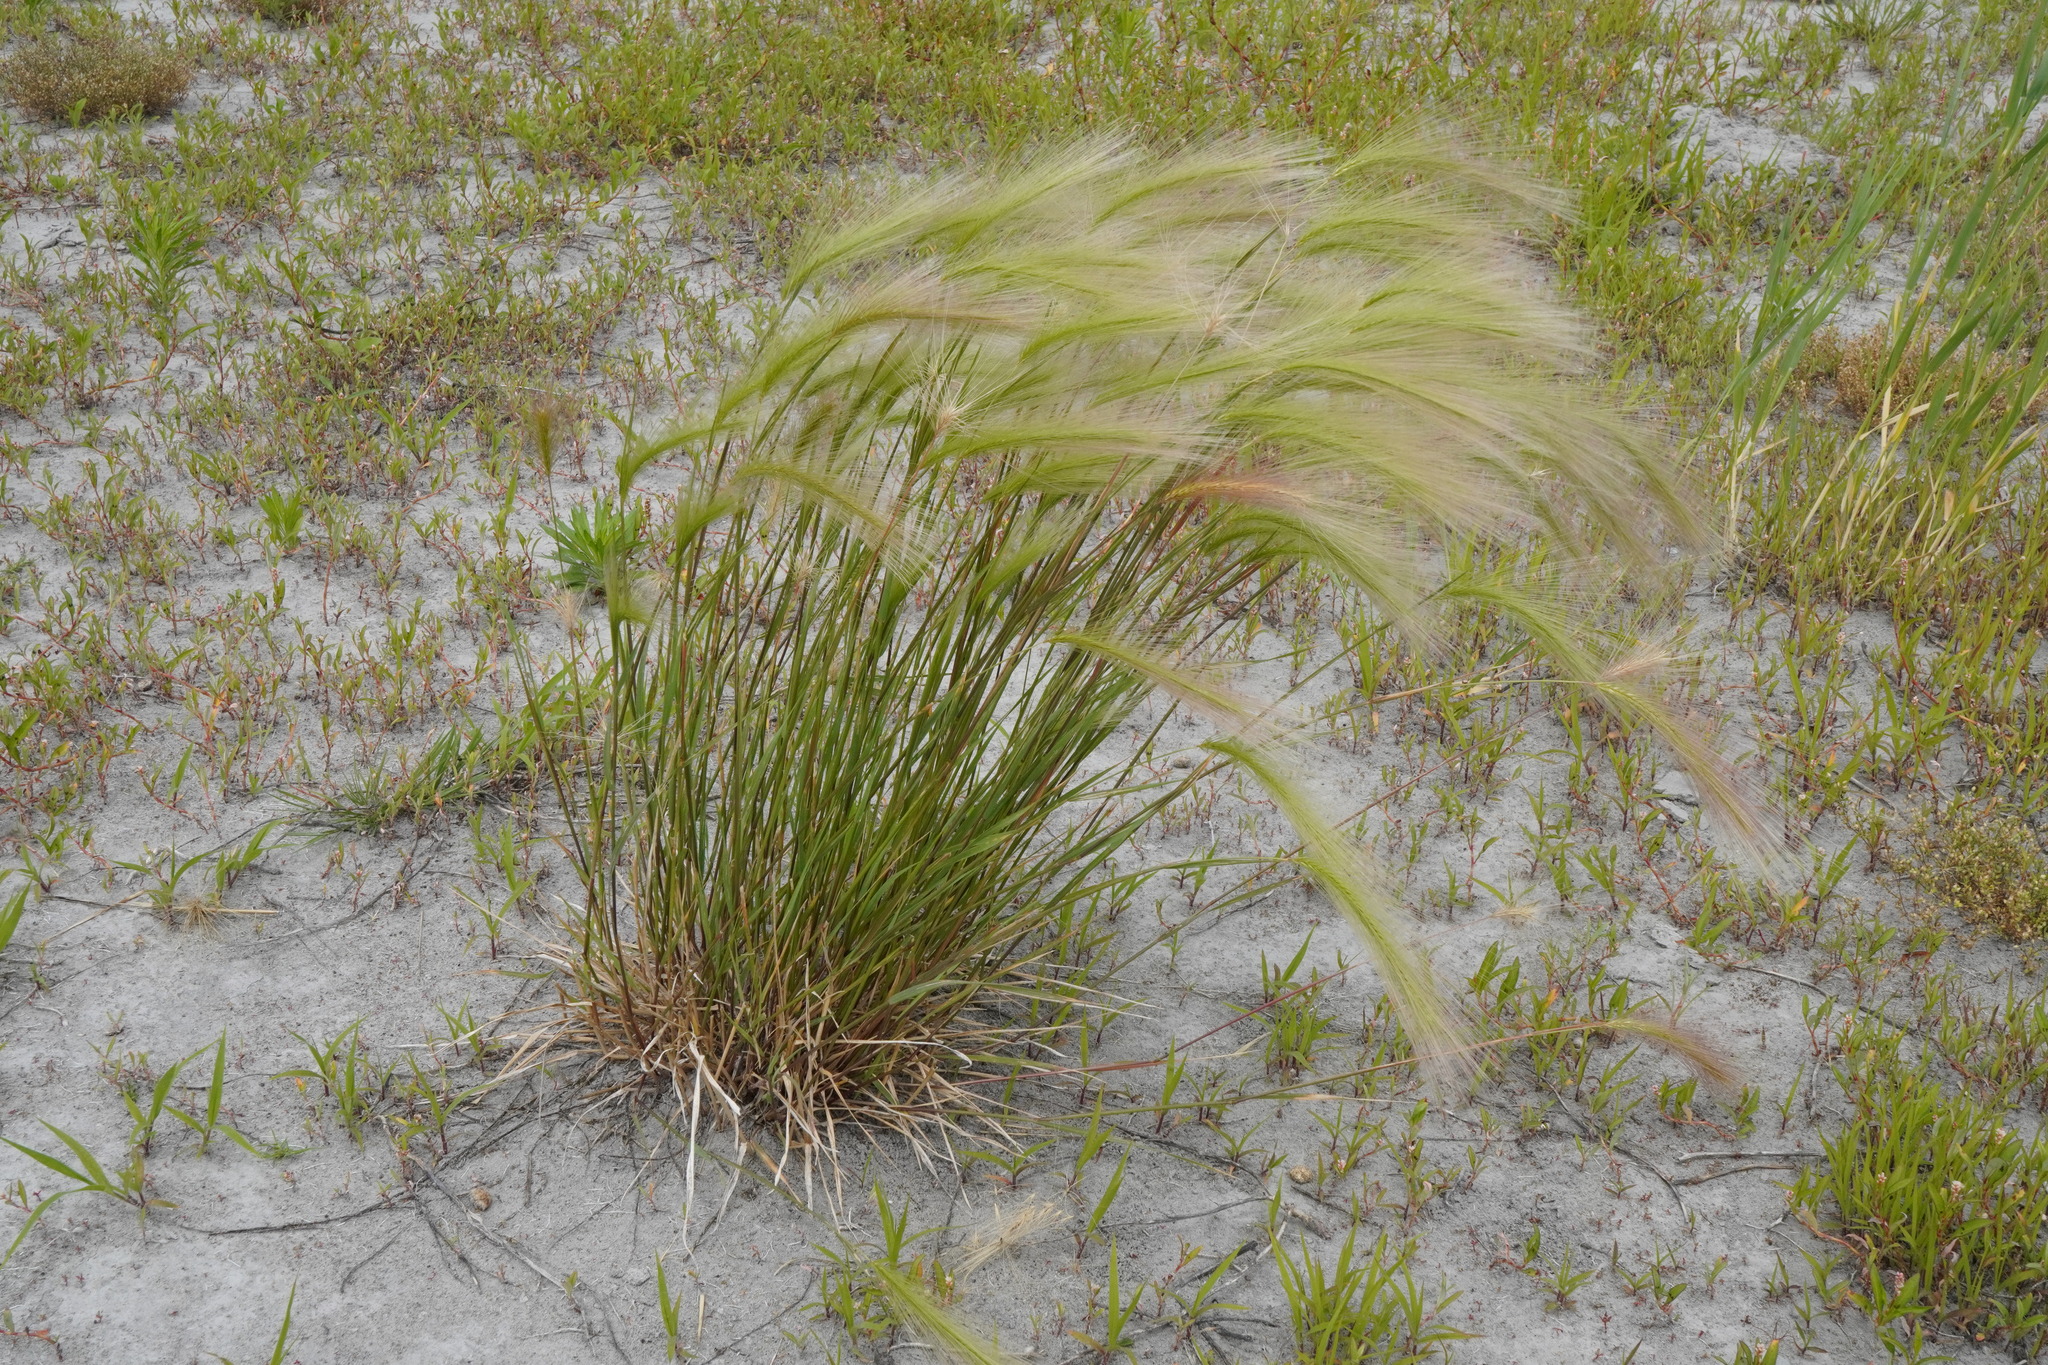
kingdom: Plantae
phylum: Tracheophyta
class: Liliopsida
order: Poales
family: Poaceae
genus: Hordeum
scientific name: Hordeum jubatum
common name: Foxtail barley
